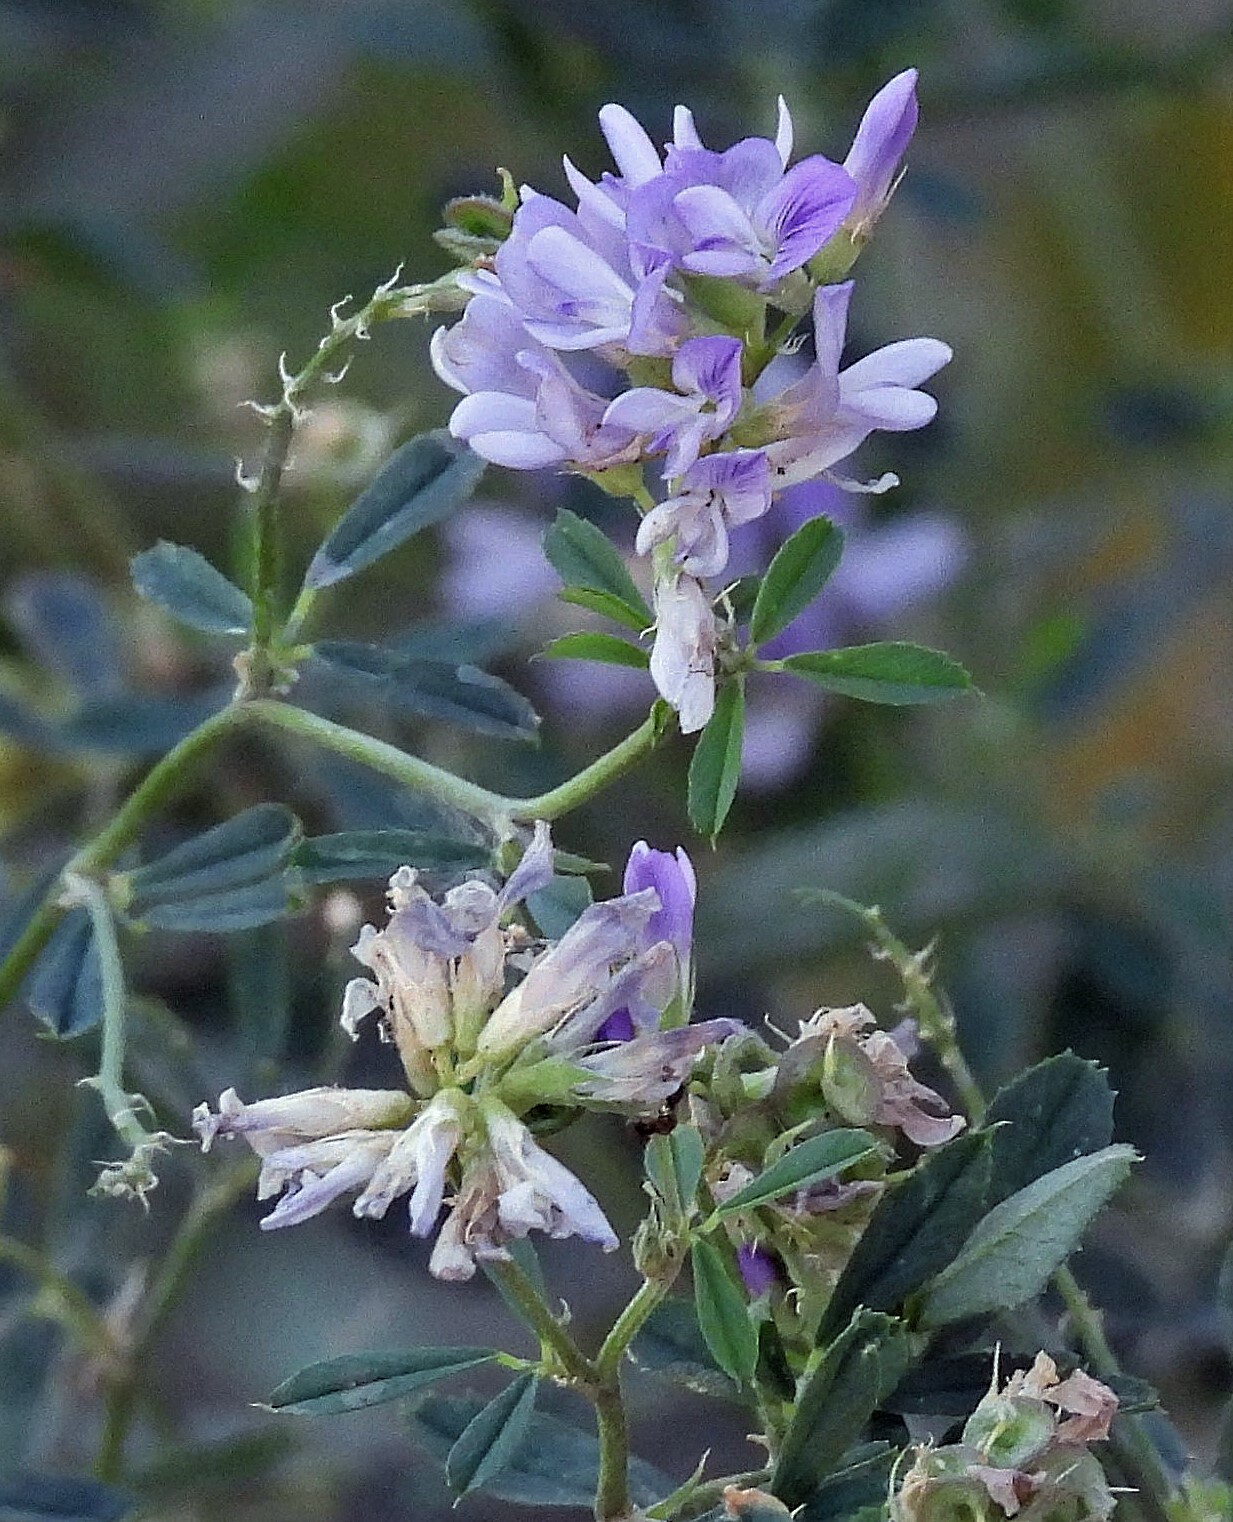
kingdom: Plantae
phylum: Tracheophyta
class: Magnoliopsida
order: Fabales
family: Fabaceae
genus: Medicago
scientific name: Medicago sativa
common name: Alfalfa
